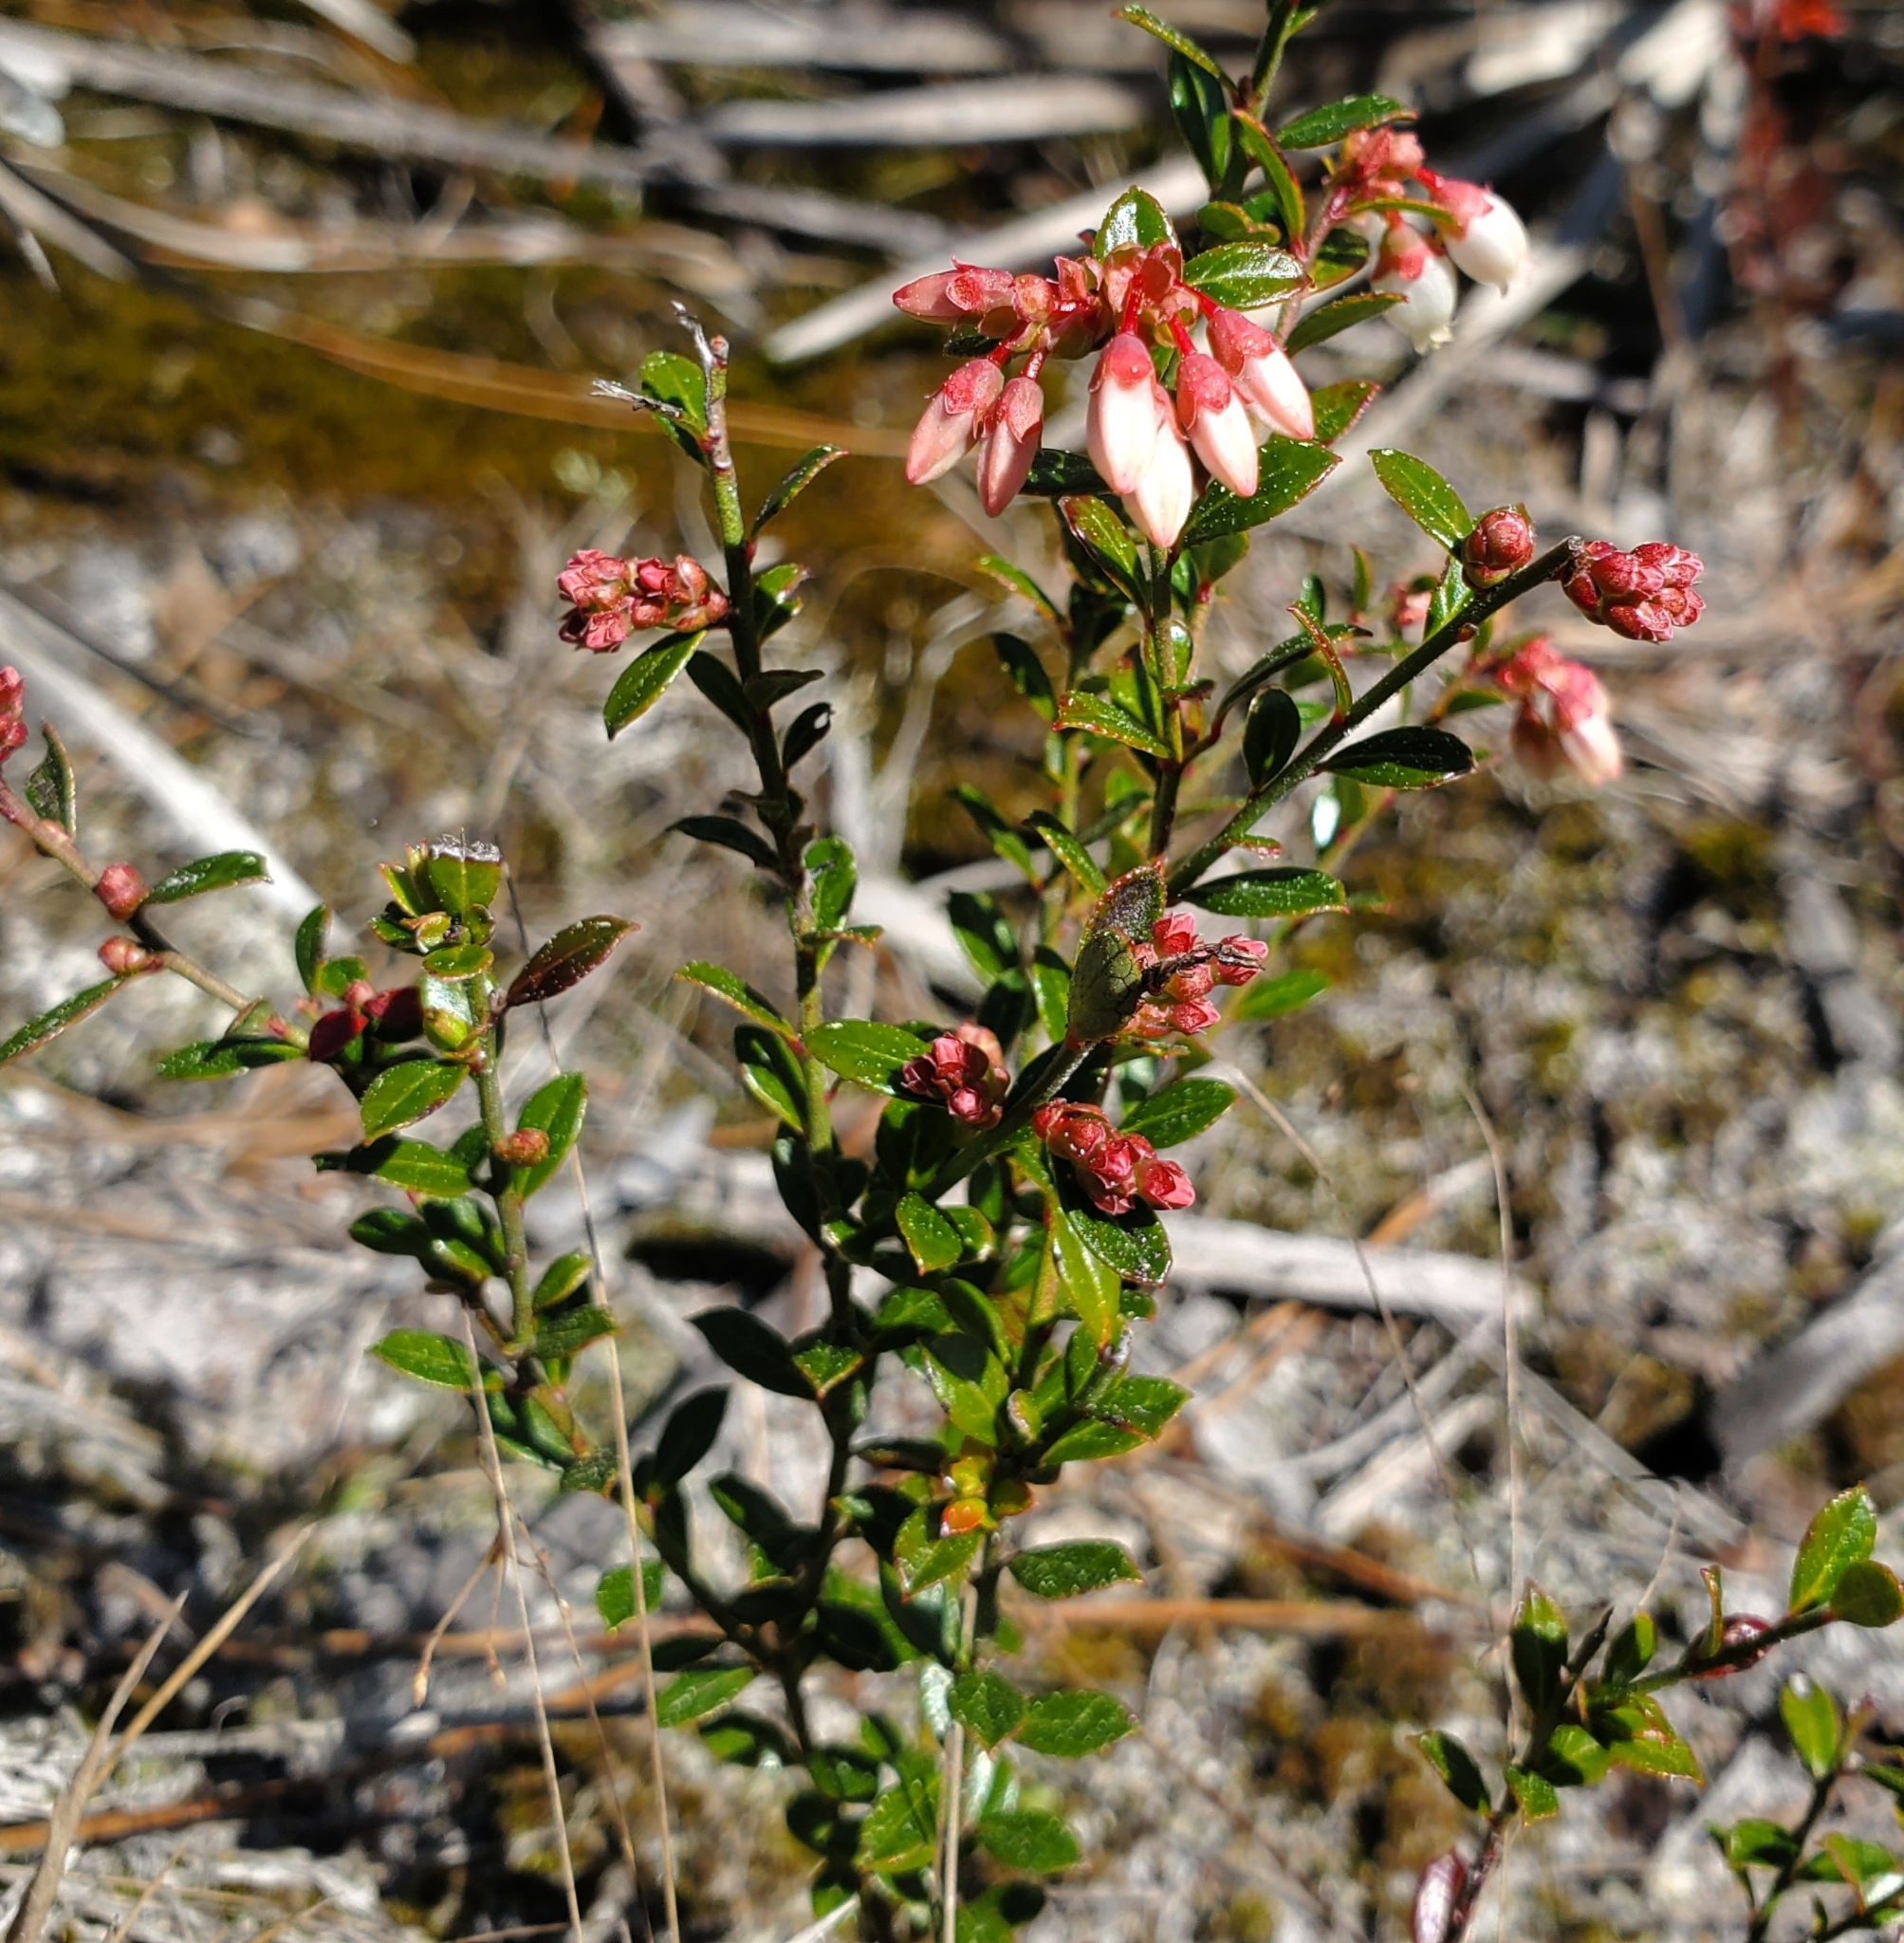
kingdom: Plantae
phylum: Tracheophyta
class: Magnoliopsida
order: Ericales
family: Ericaceae
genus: Vaccinium
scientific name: Vaccinium myrsinites
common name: Evergreen blueberry
